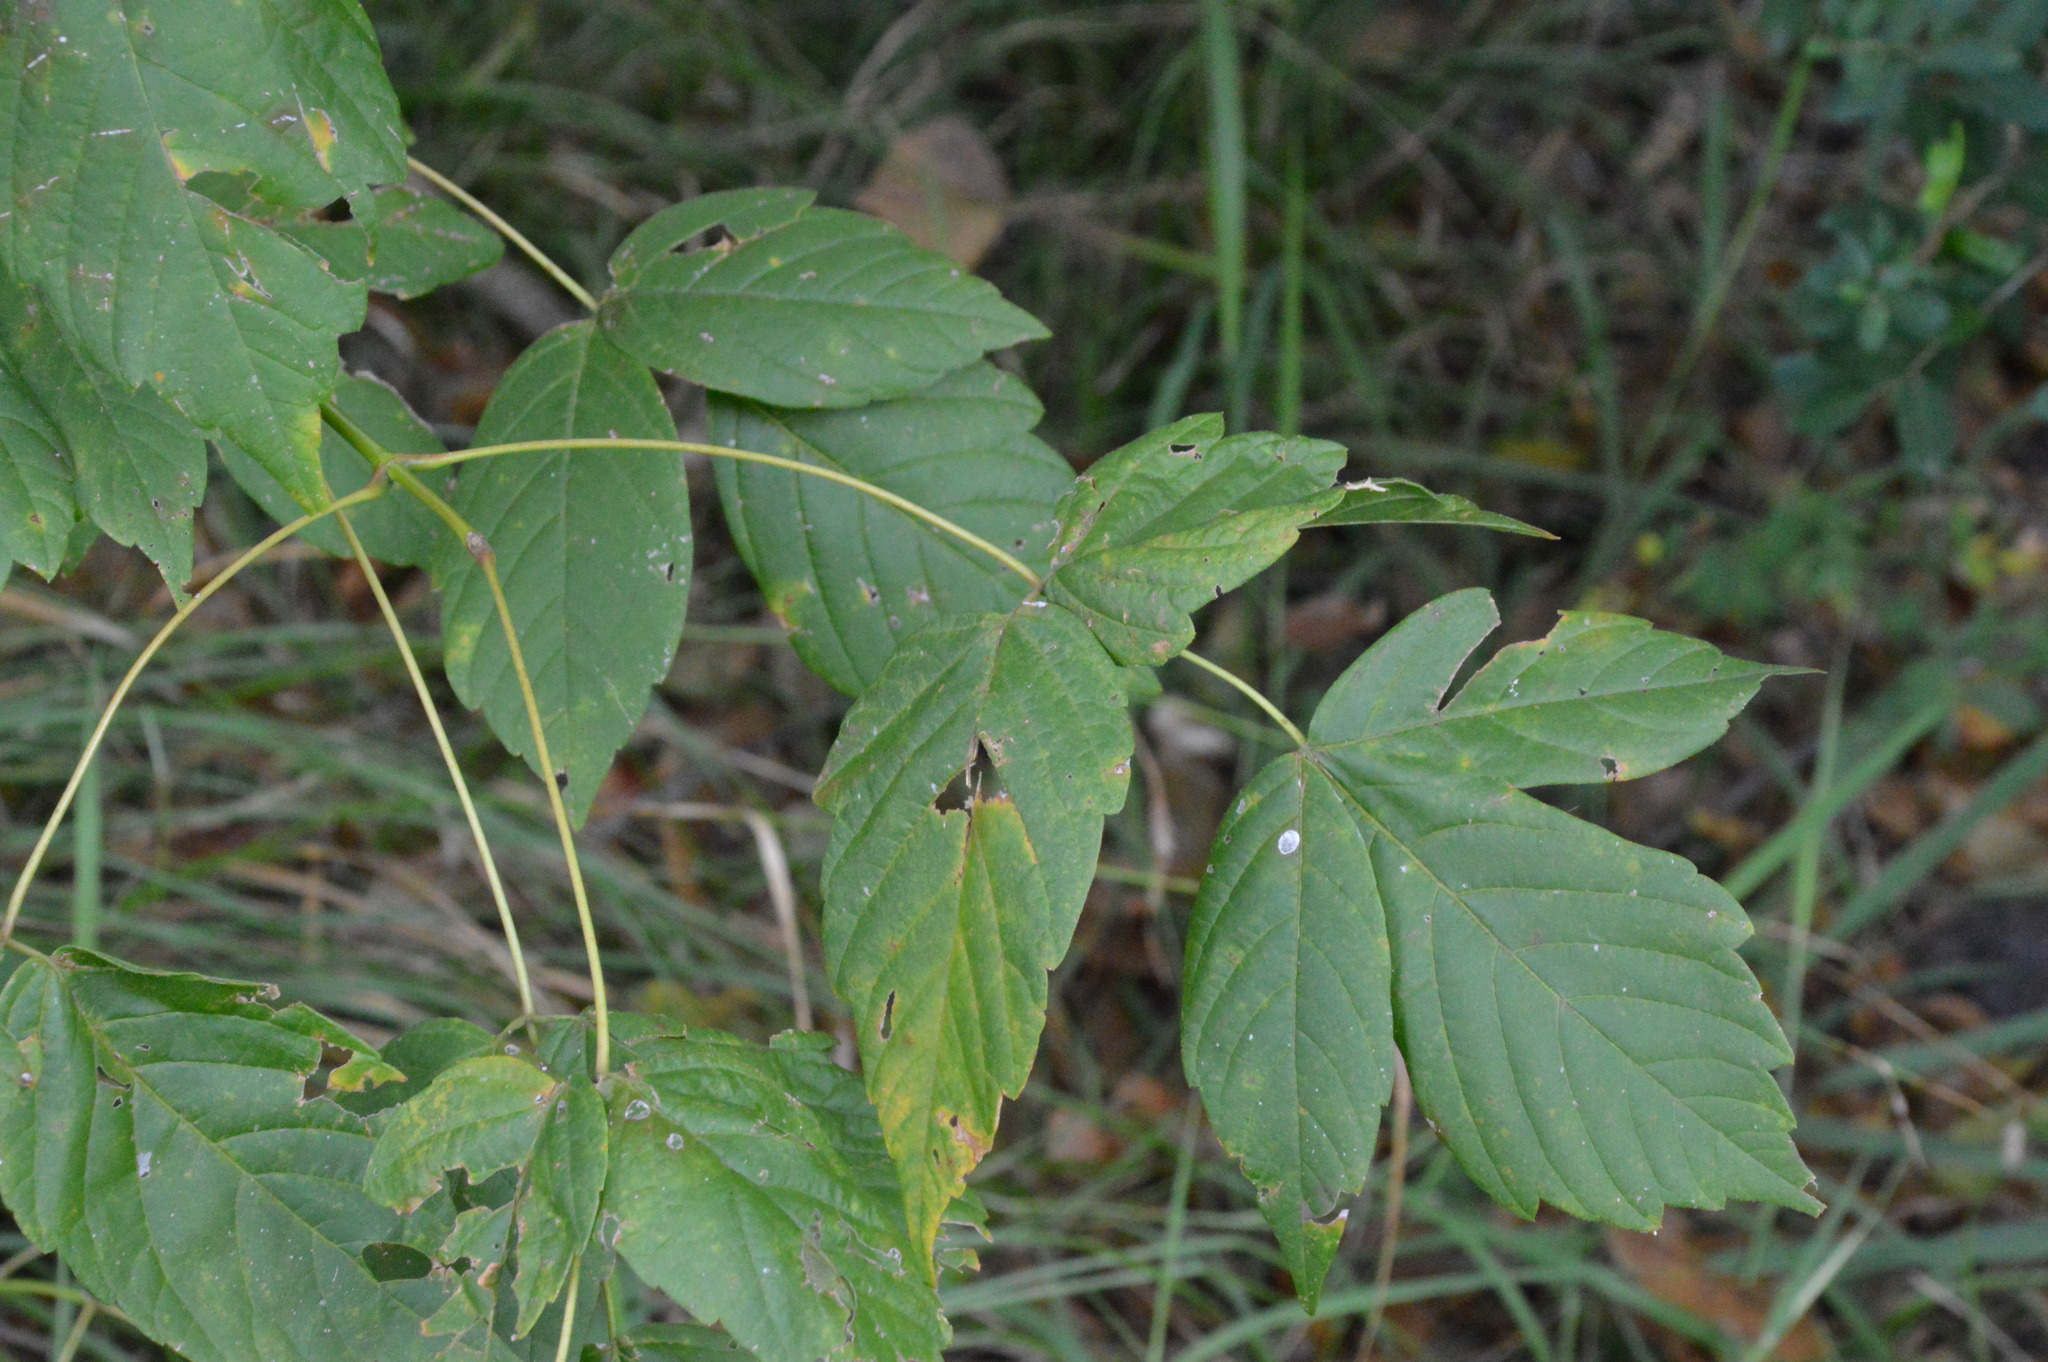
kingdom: Plantae
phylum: Tracheophyta
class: Magnoliopsida
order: Sapindales
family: Sapindaceae
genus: Acer
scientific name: Acer negundo
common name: Ashleaf maple
